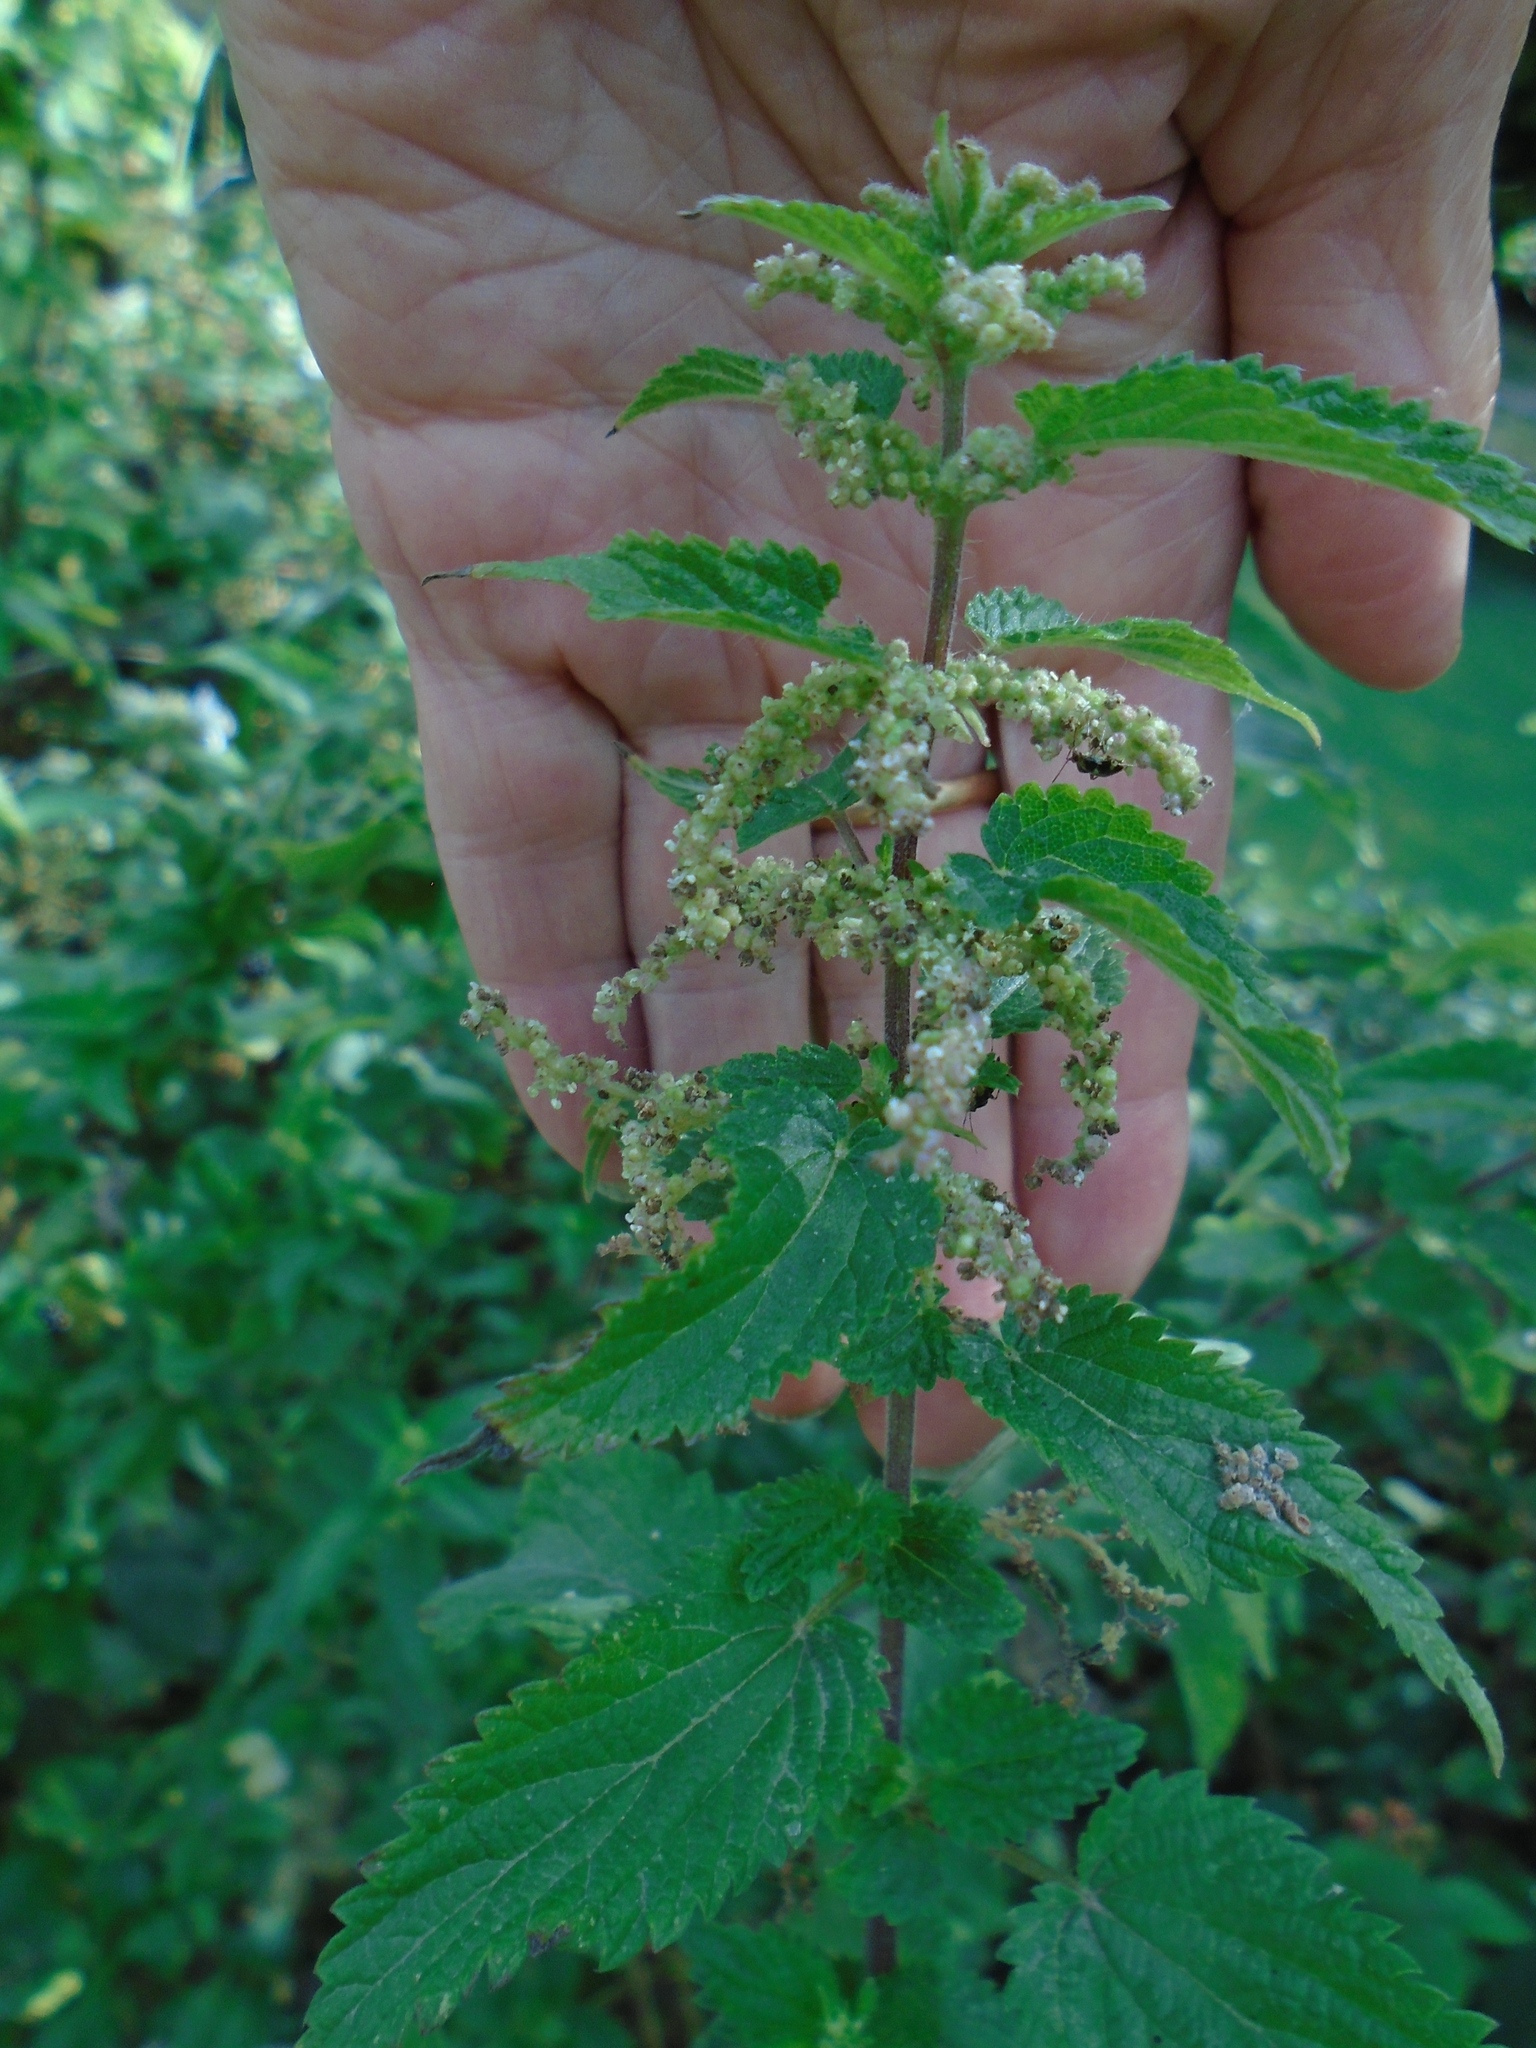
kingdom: Plantae
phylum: Tracheophyta
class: Magnoliopsida
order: Rosales
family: Urticaceae
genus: Urtica
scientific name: Urtica dioica
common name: Common nettle
